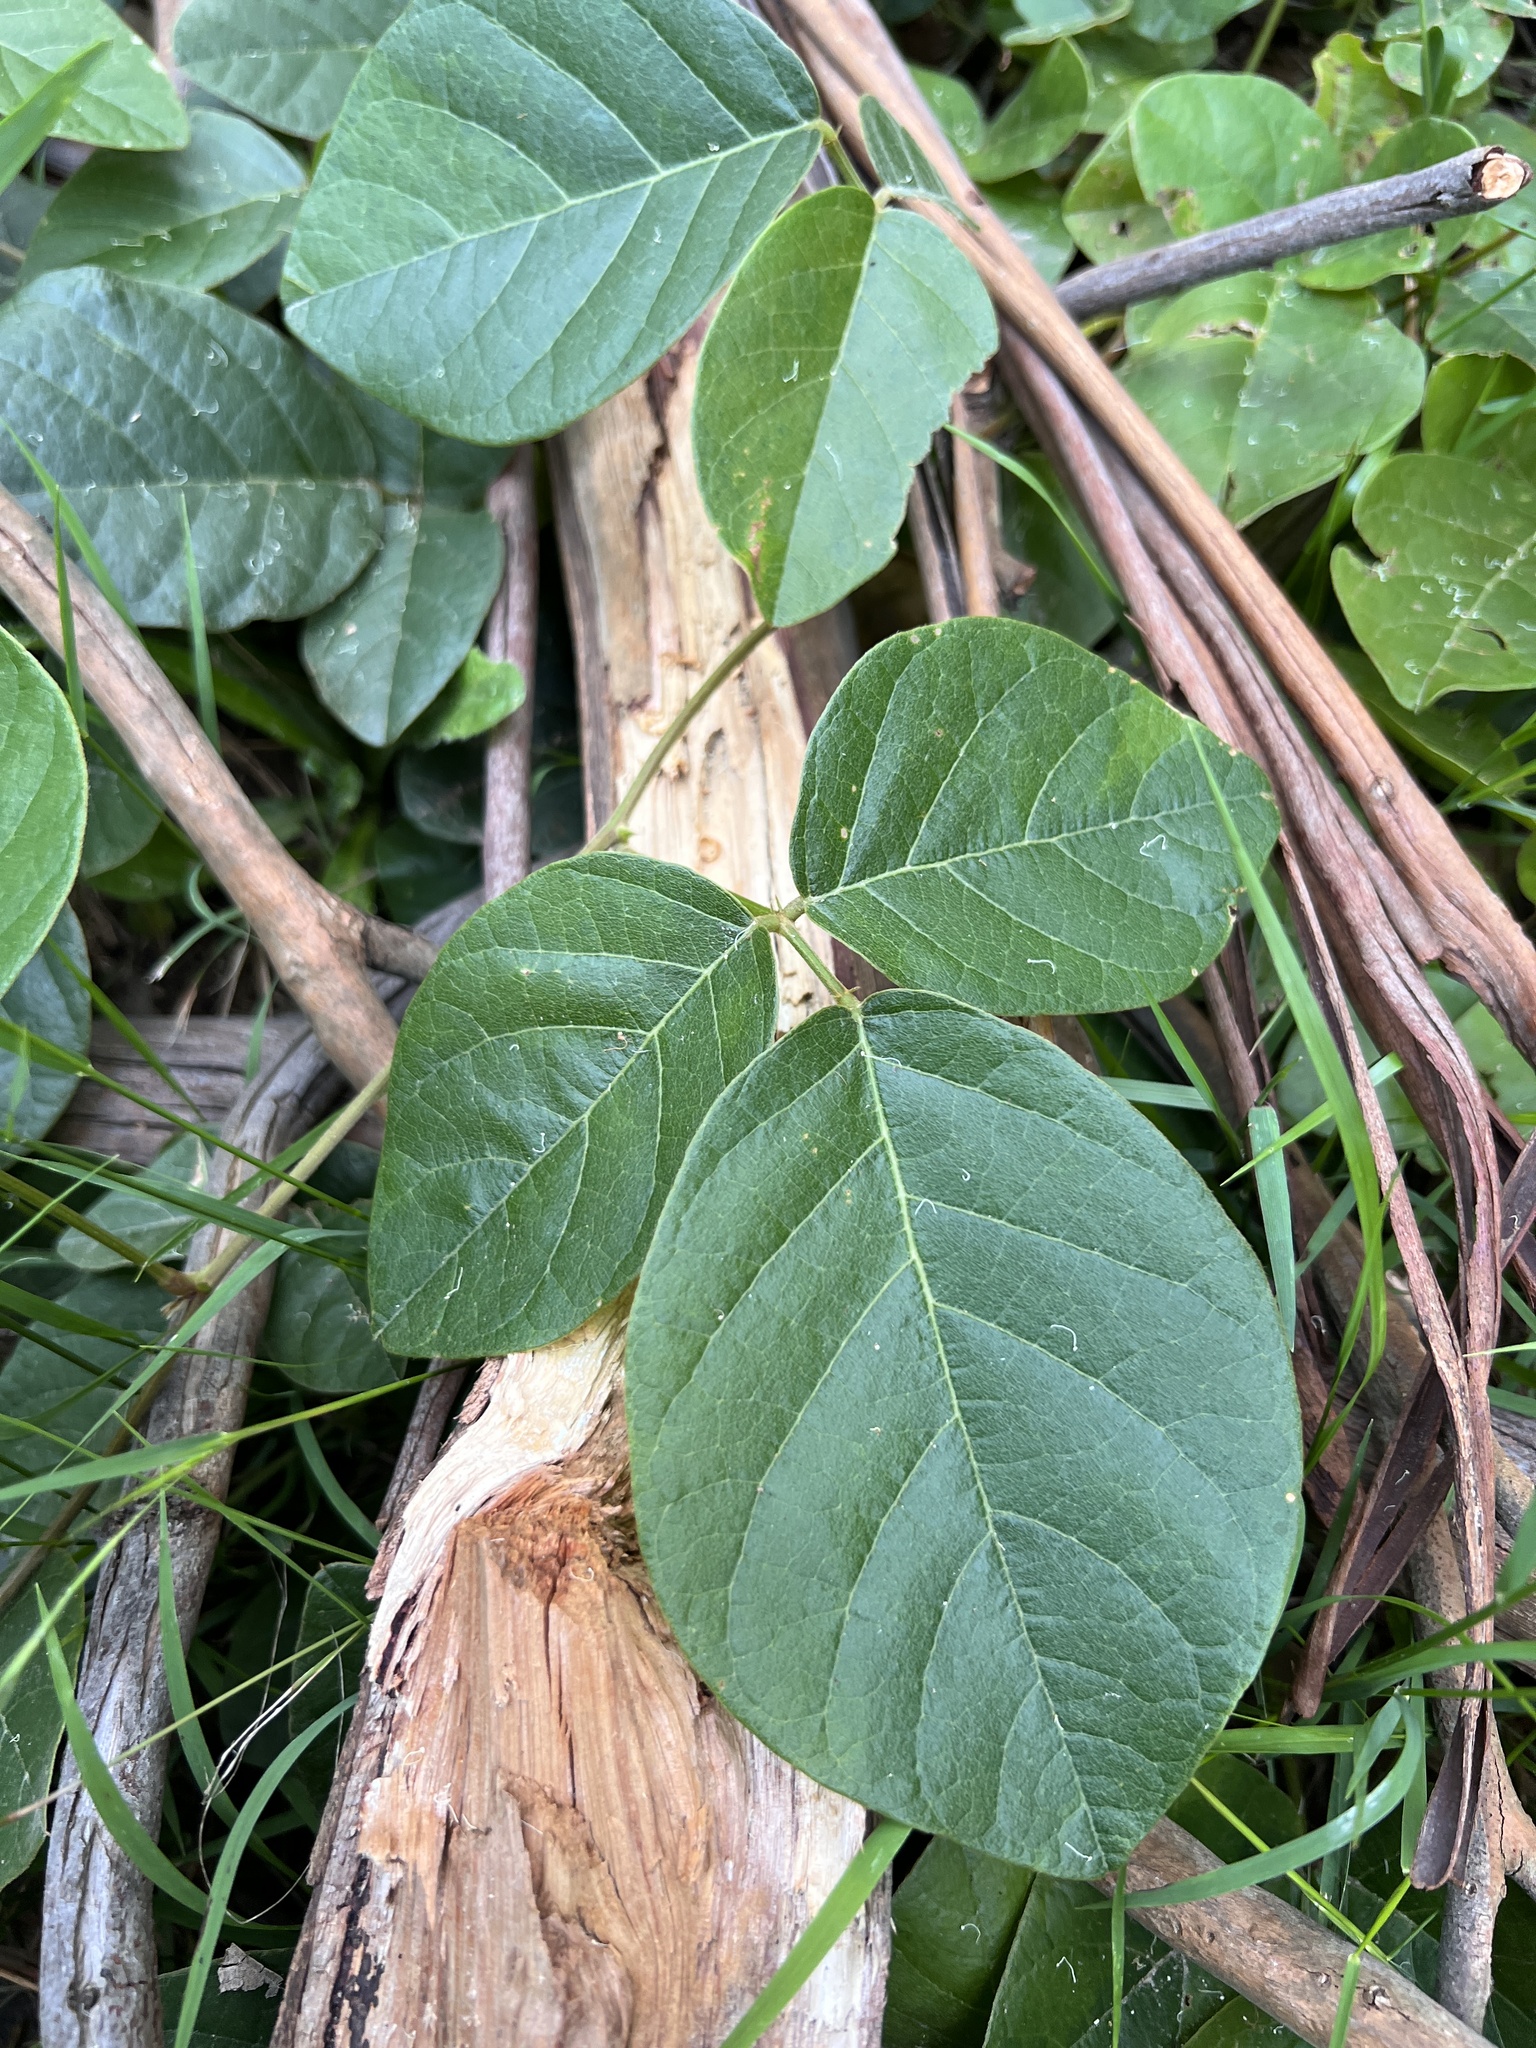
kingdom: Plantae
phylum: Tracheophyta
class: Magnoliopsida
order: Fabales
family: Fabaceae
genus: Kennedia
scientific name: Kennedia rubicunda
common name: Red kennedy-pea
